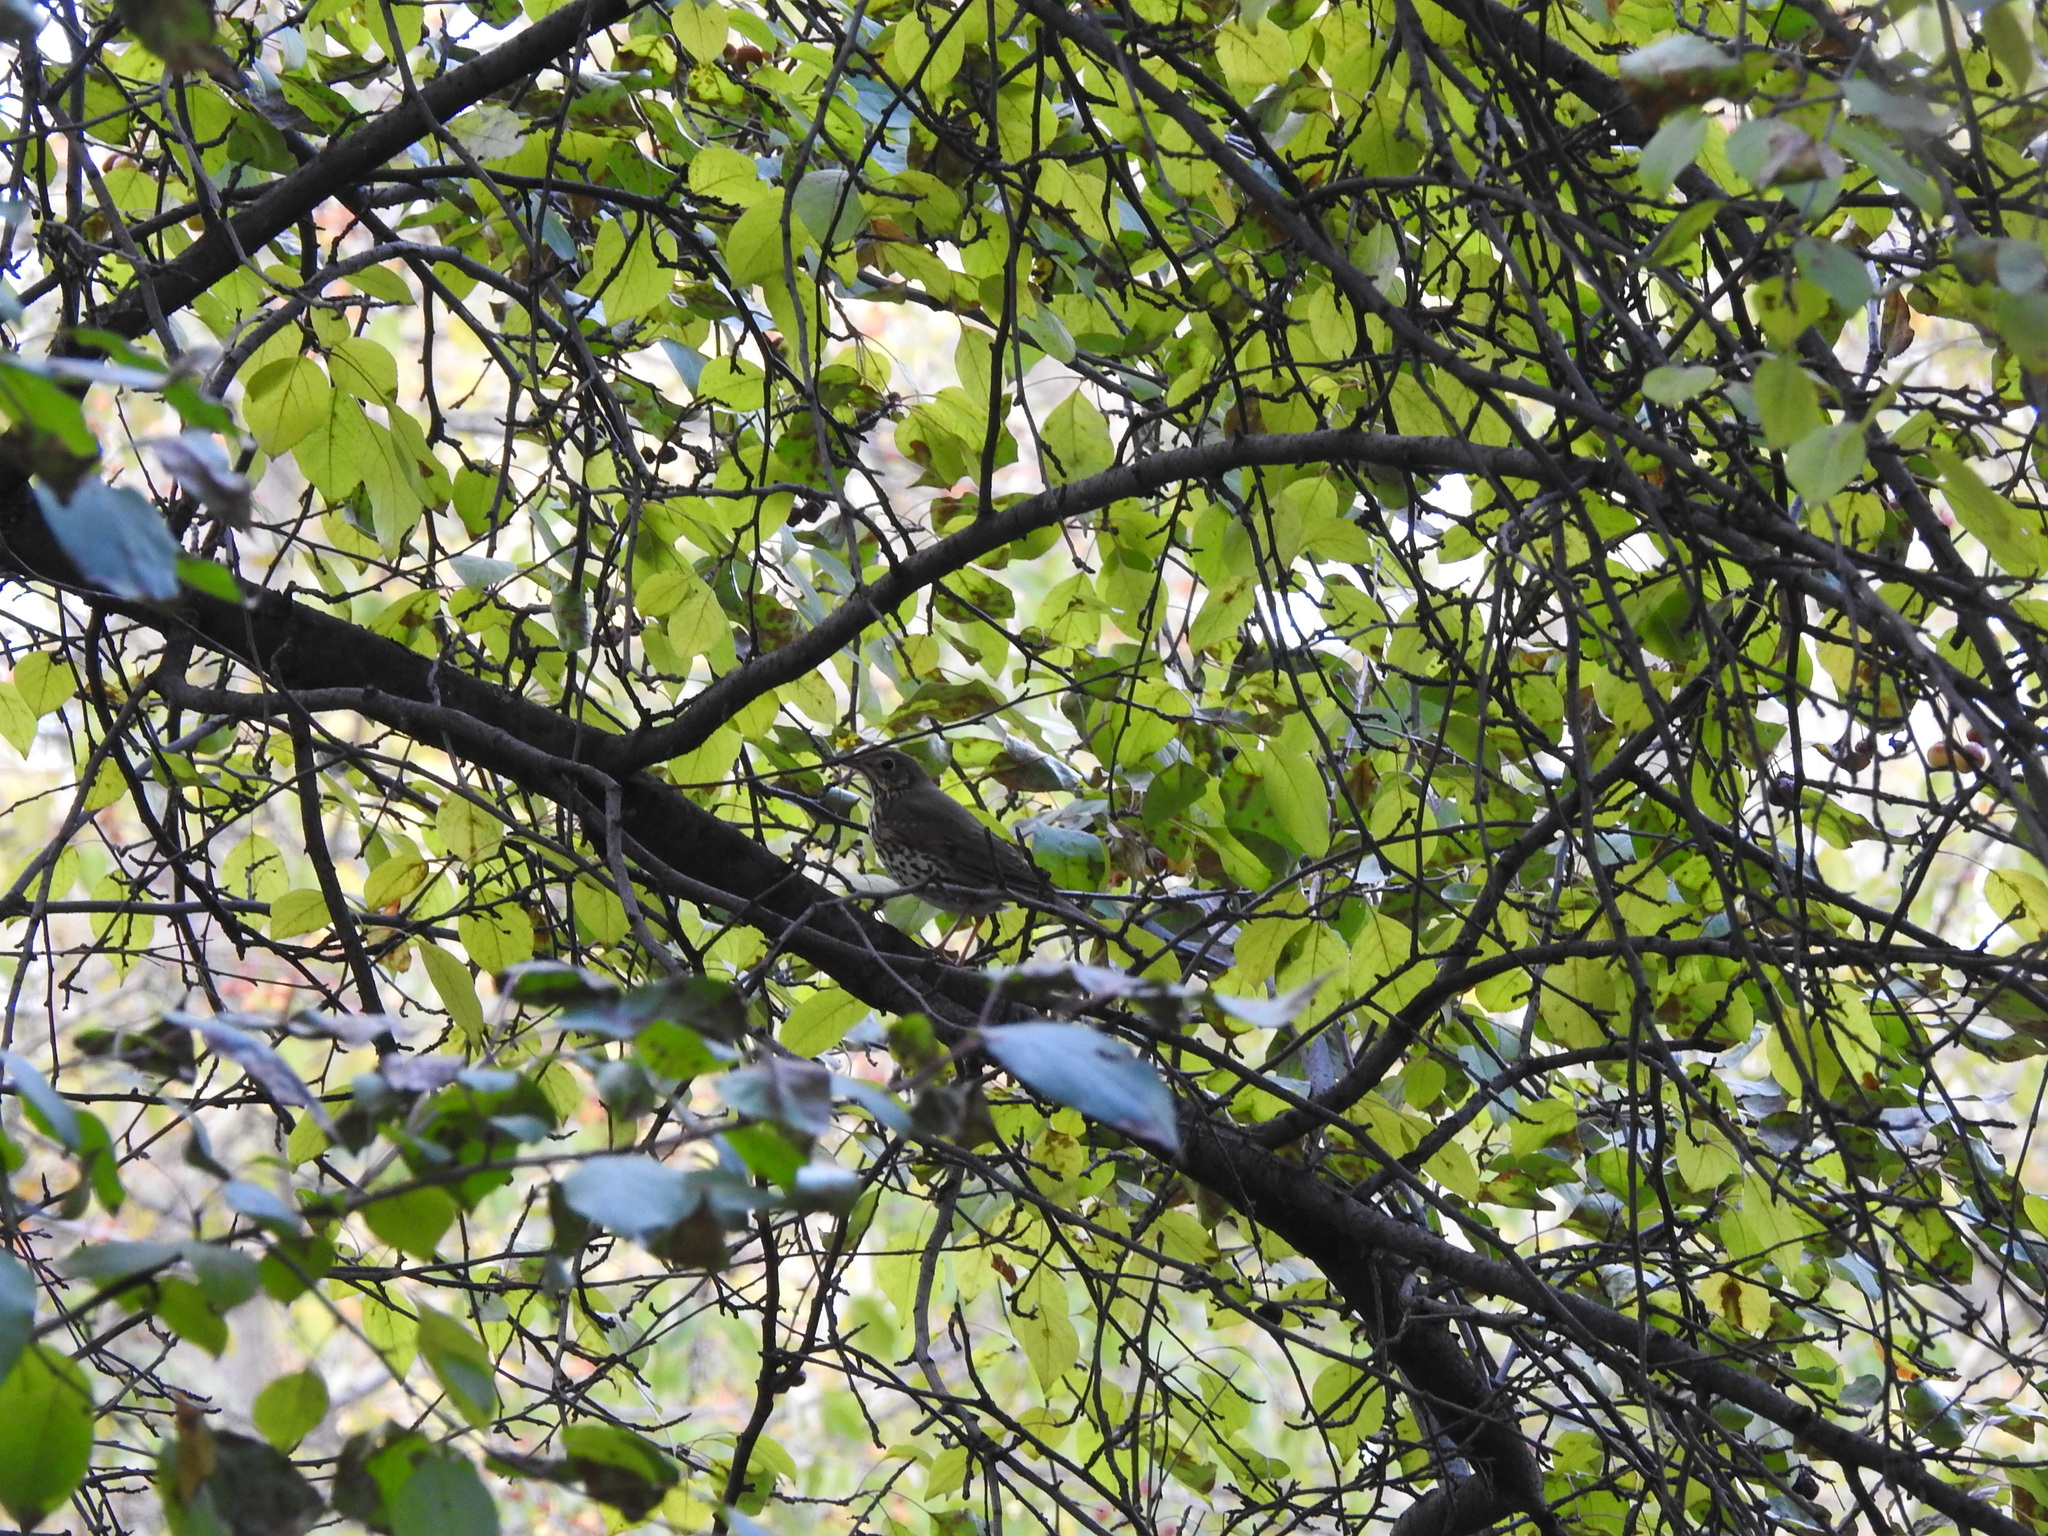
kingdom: Animalia
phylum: Chordata
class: Aves
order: Passeriformes
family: Turdidae
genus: Turdus
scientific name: Turdus philomelos
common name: Song thrush
